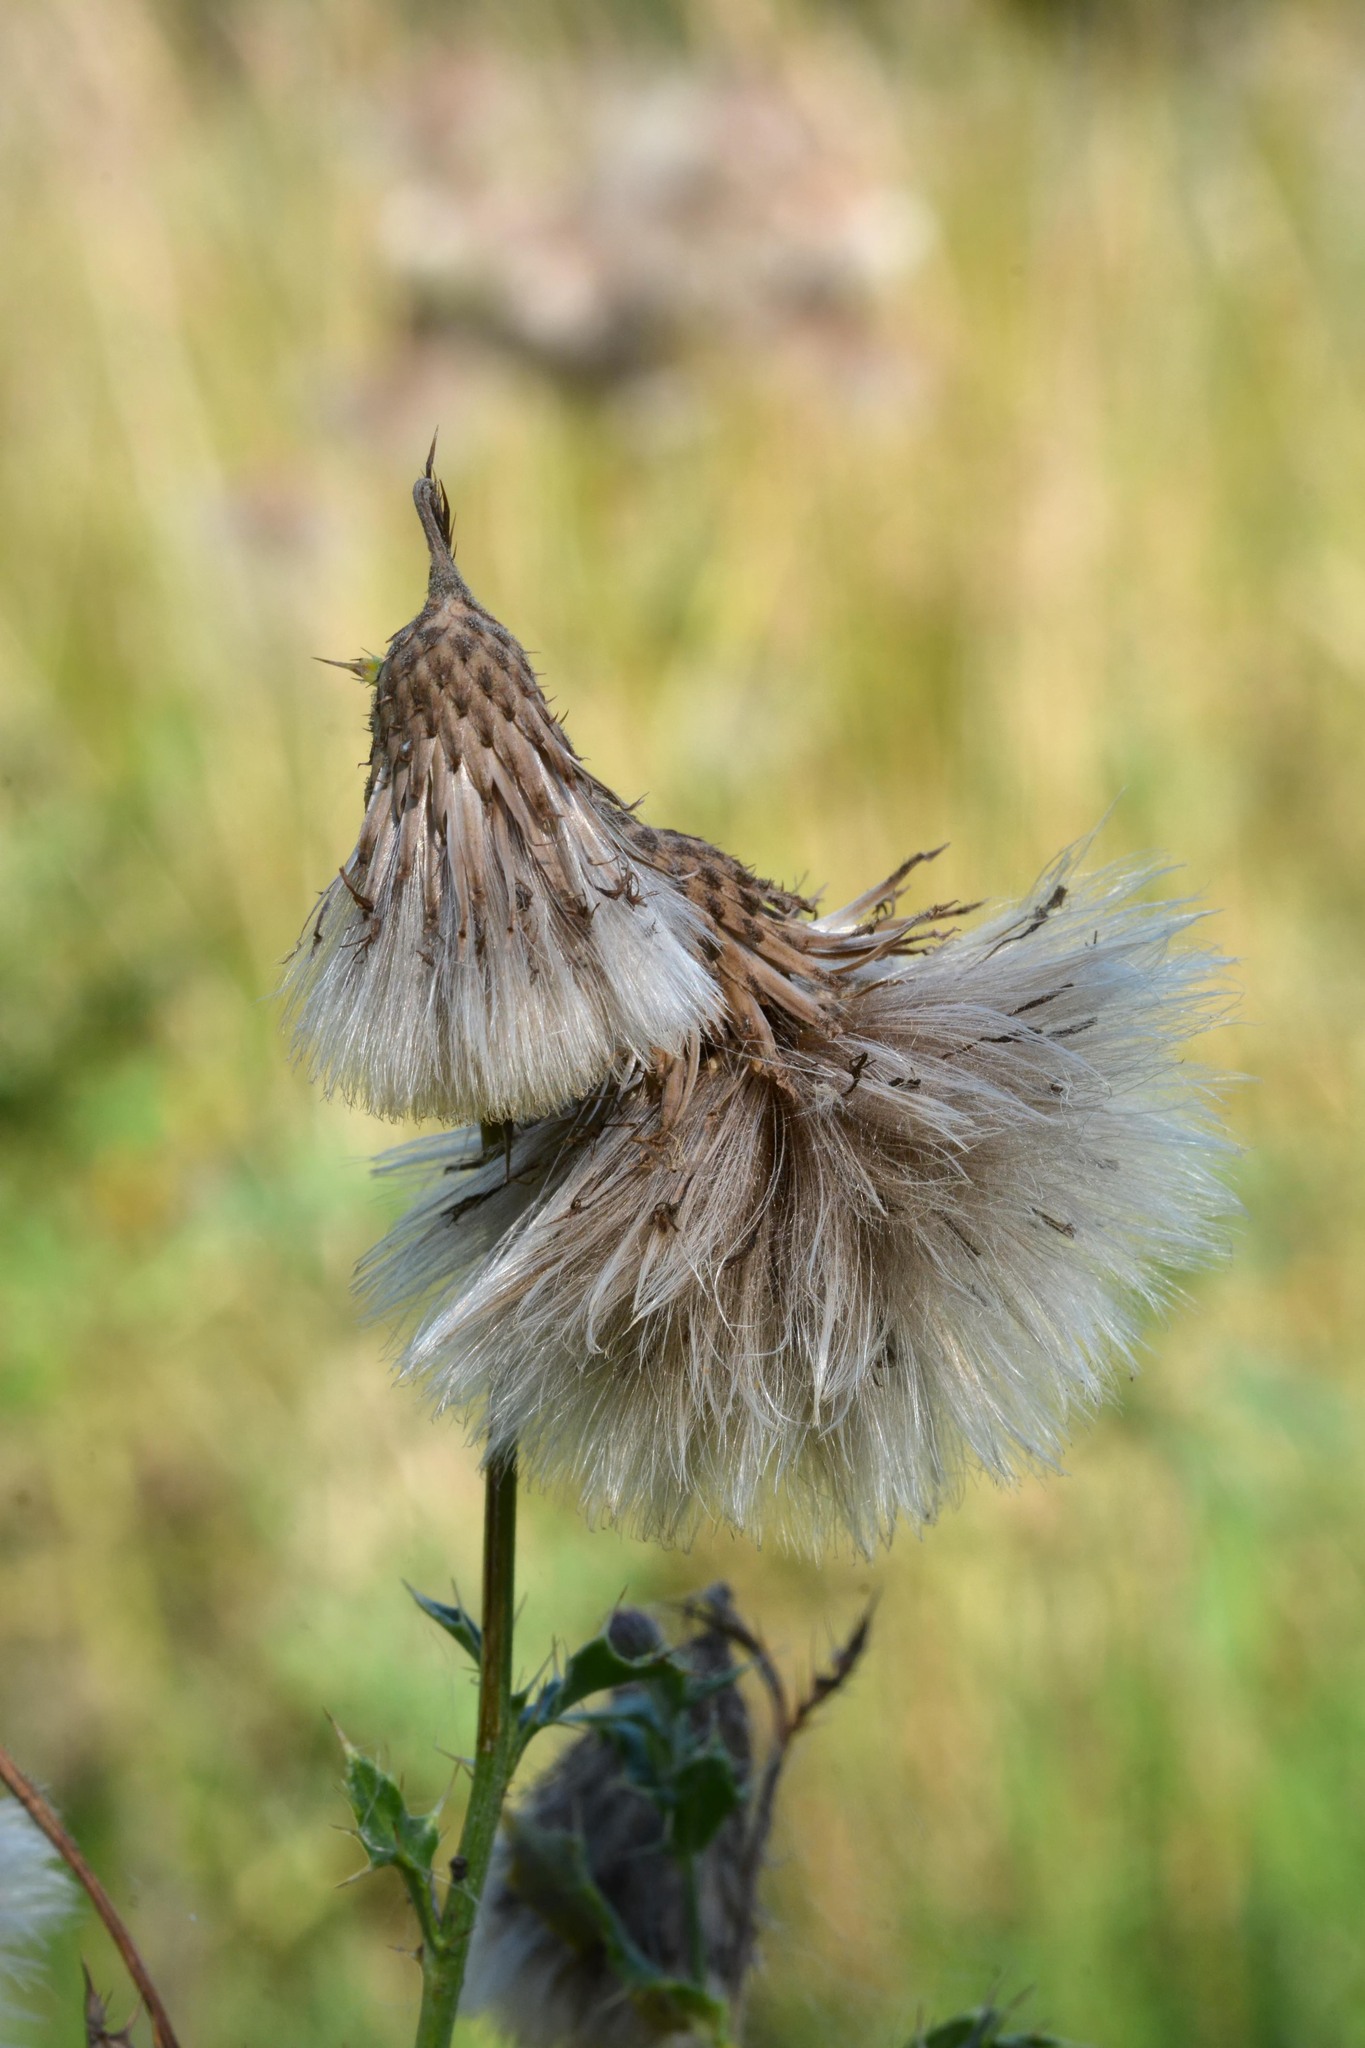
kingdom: Plantae
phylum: Tracheophyta
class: Magnoliopsida
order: Asterales
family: Asteraceae
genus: Cirsium
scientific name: Cirsium arvense
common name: Creeping thistle
